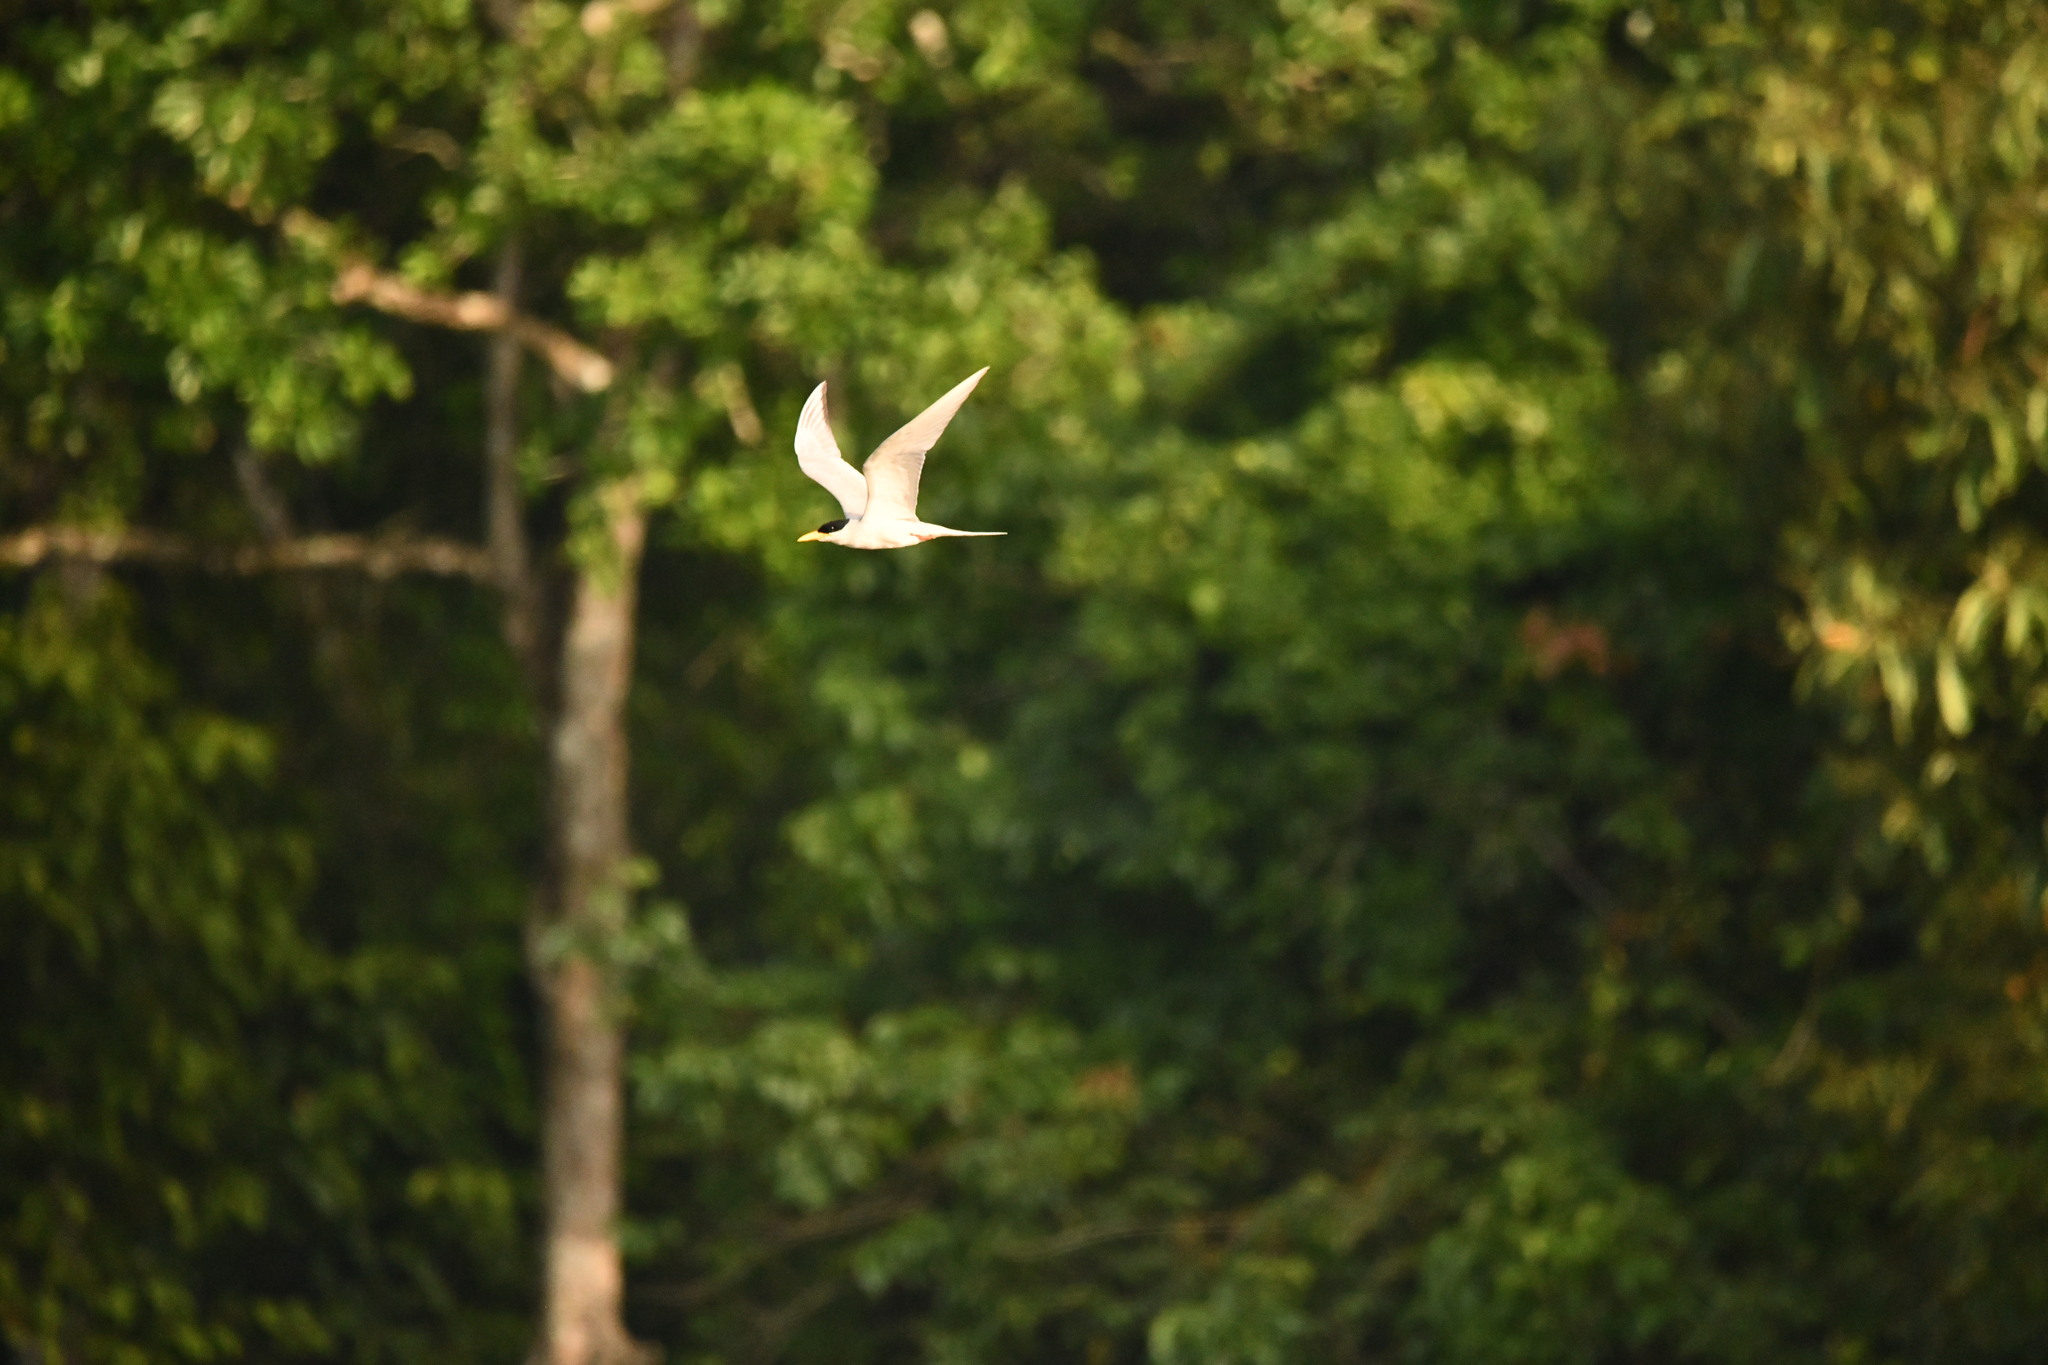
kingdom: Animalia
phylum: Chordata
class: Aves
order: Charadriiformes
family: Laridae
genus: Sterna
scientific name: Sterna aurantia
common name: River tern
